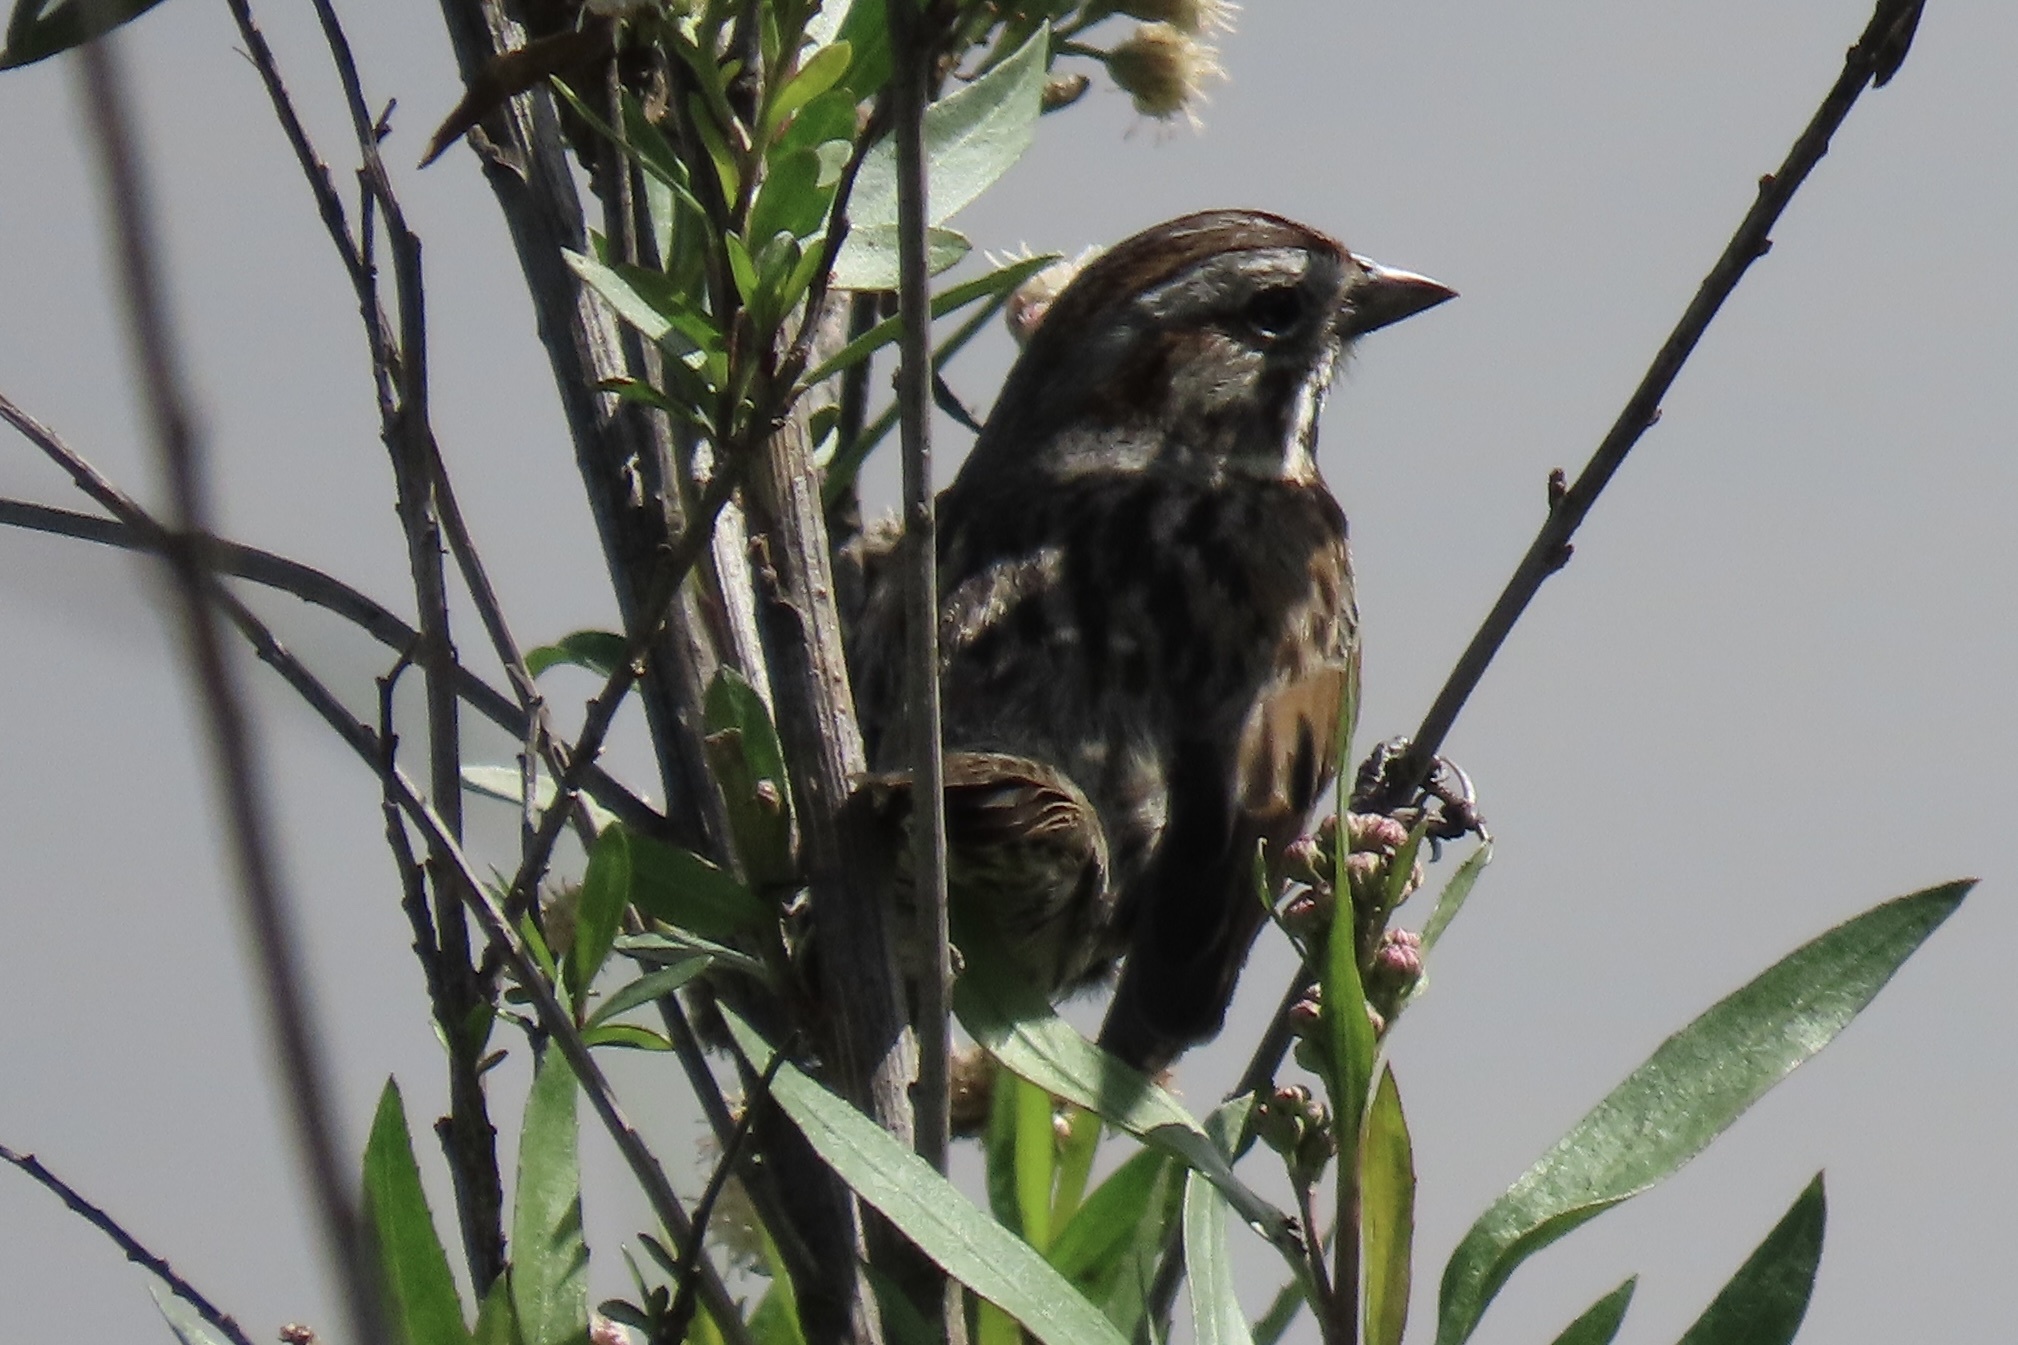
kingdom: Animalia
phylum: Chordata
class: Aves
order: Passeriformes
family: Passerellidae
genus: Melospiza
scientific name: Melospiza melodia
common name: Song sparrow
